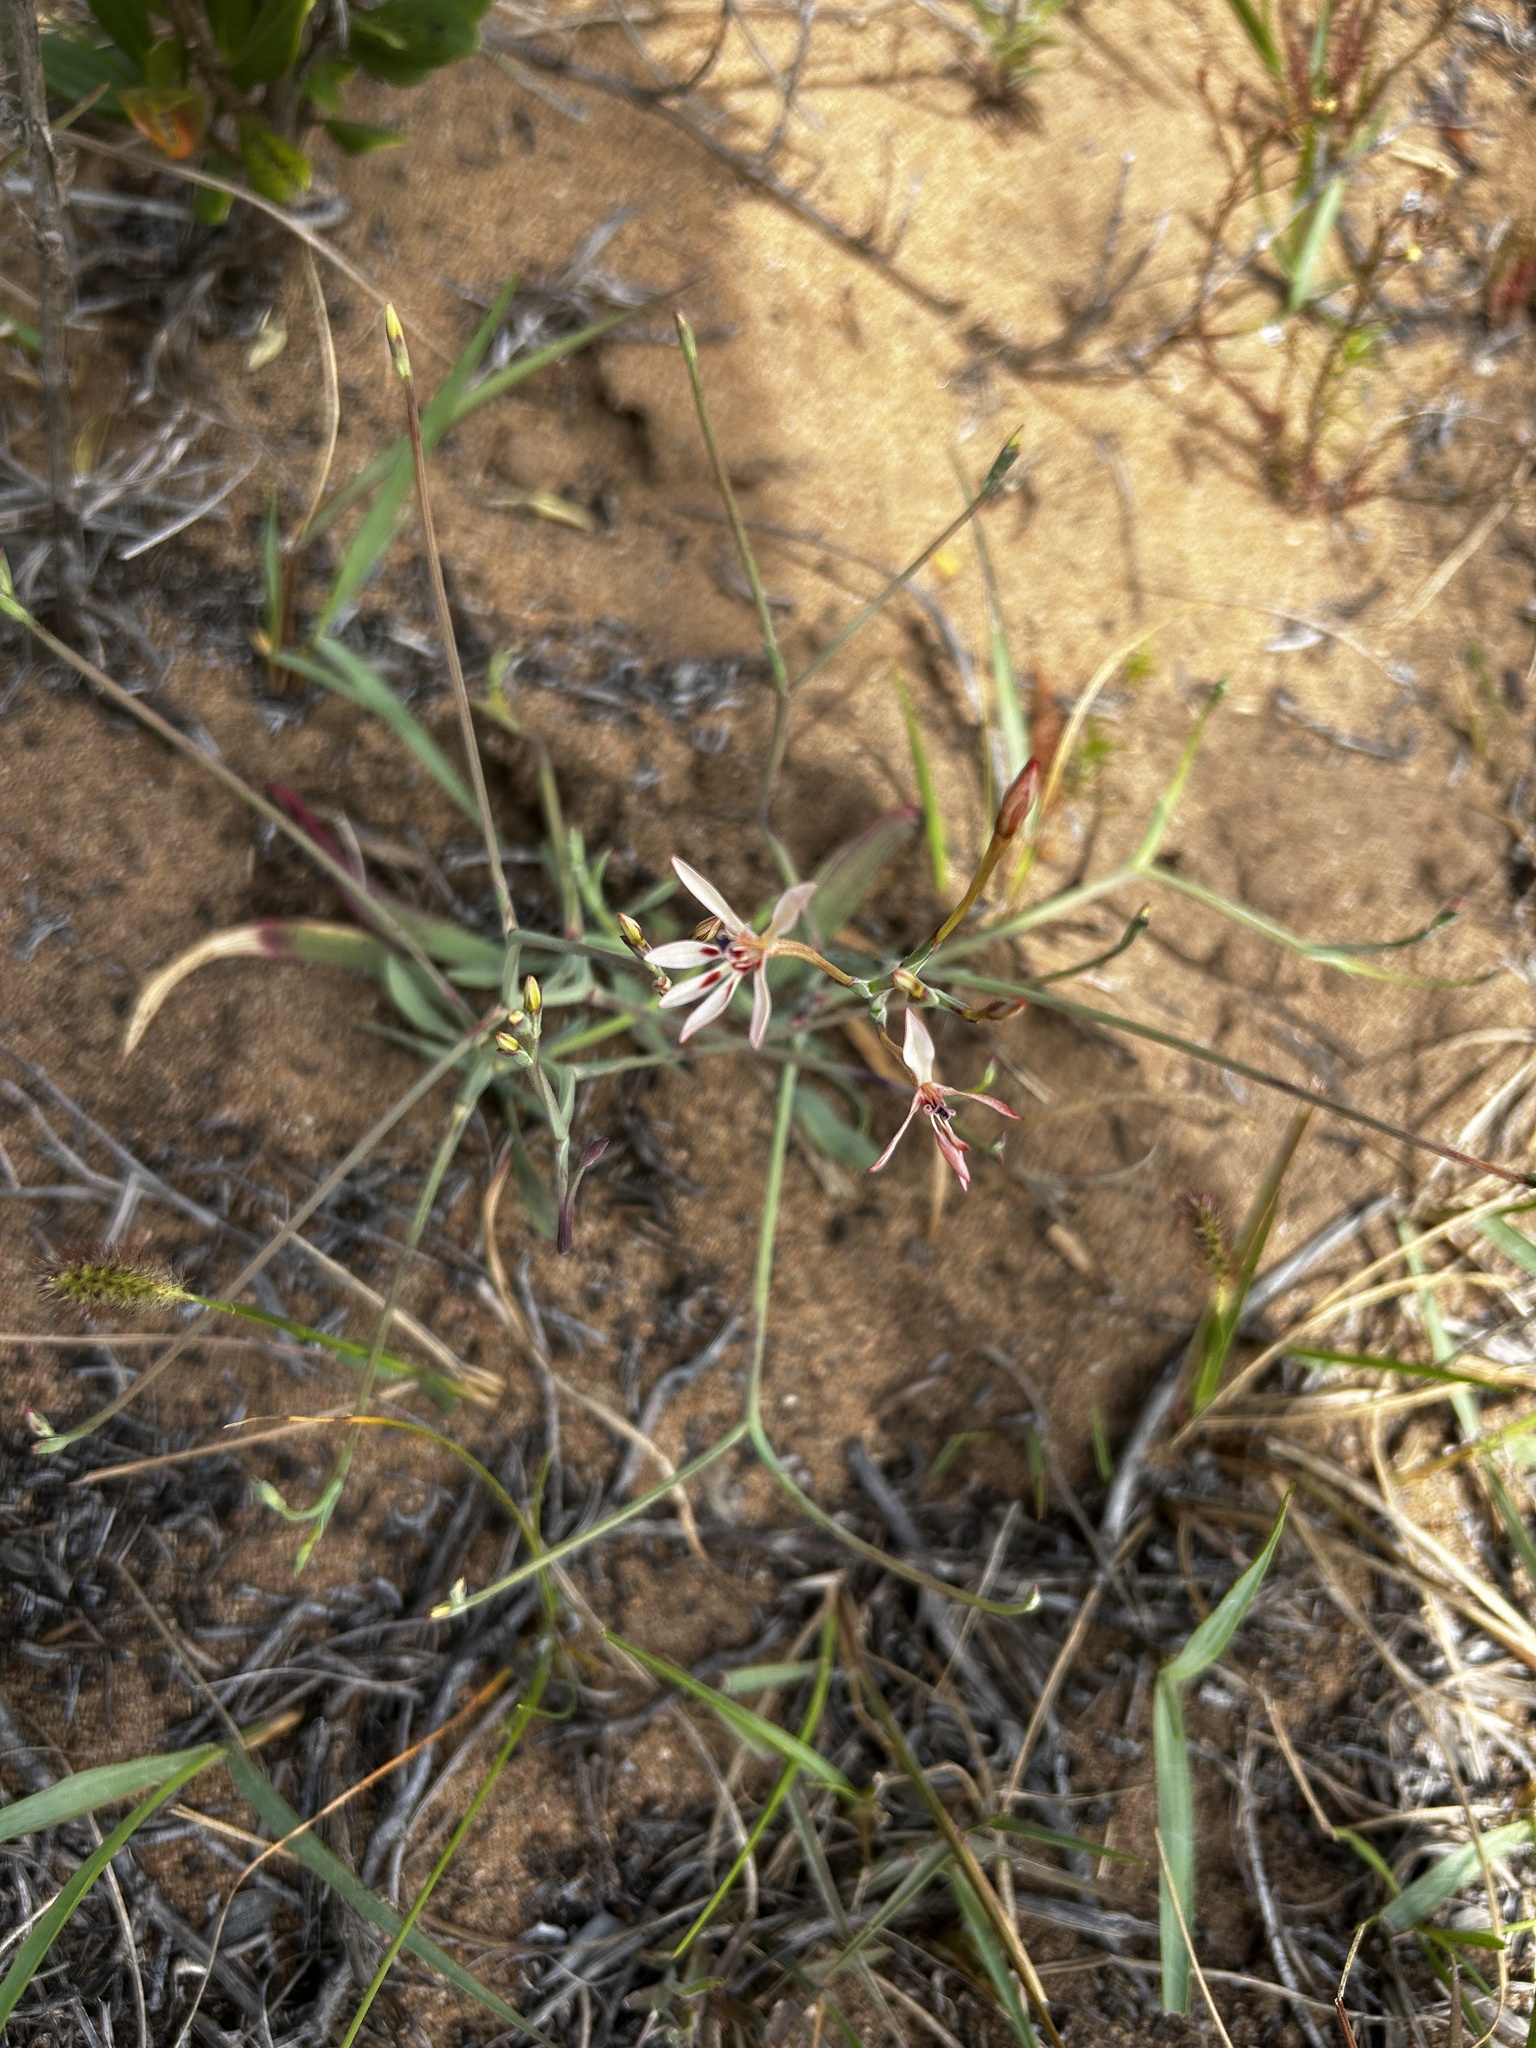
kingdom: Plantae
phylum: Tracheophyta
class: Liliopsida
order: Asparagales
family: Iridaceae
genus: Lapeirousia
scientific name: Lapeirousia anceps
